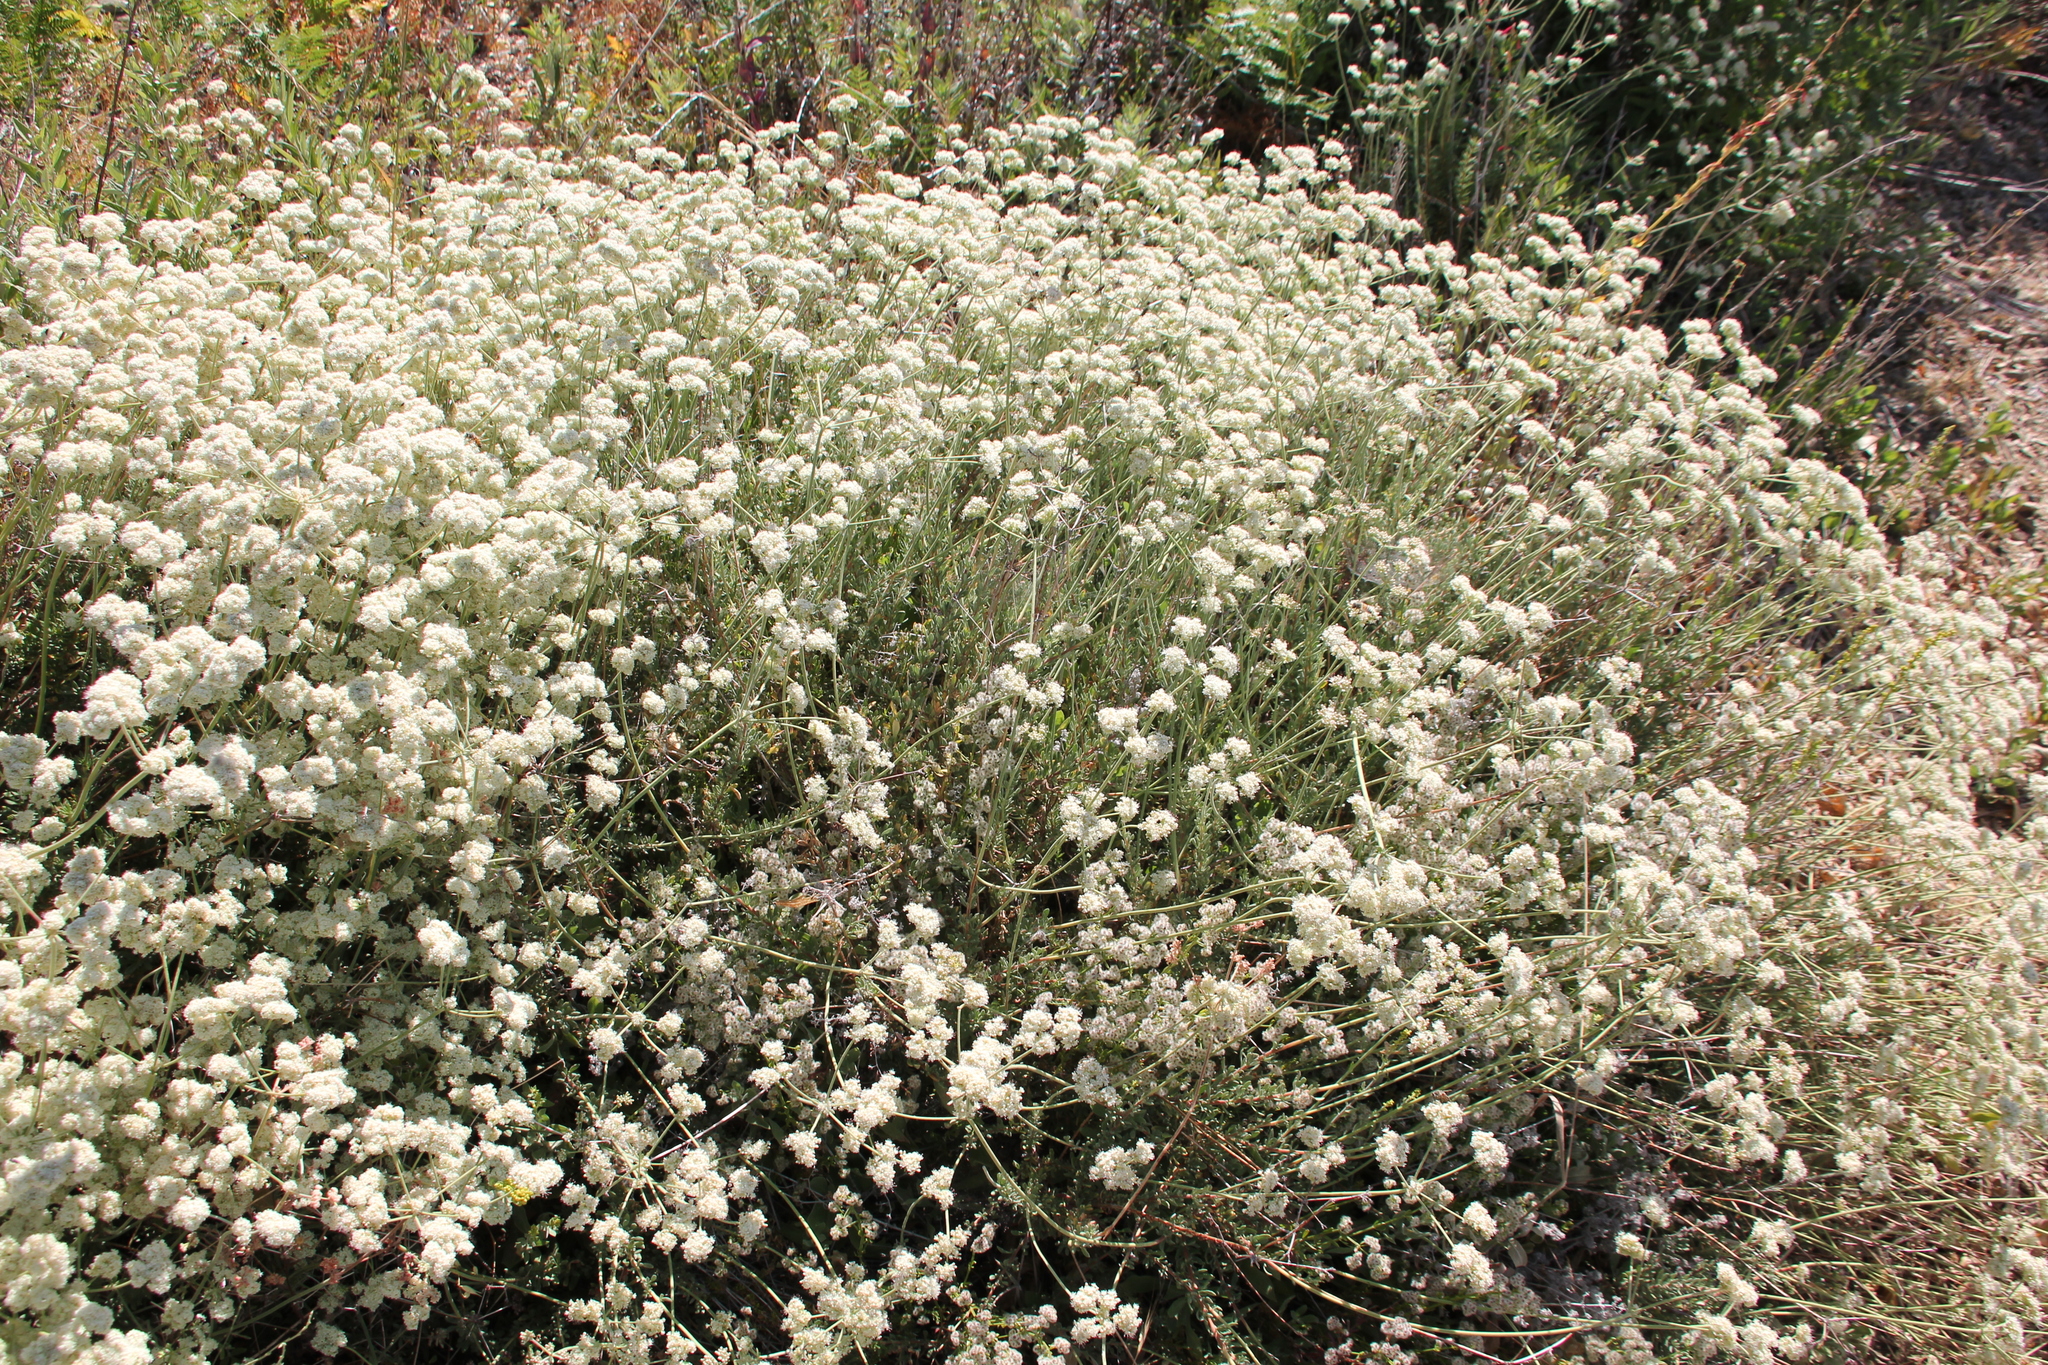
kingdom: Plantae
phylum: Tracheophyta
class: Magnoliopsida
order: Caryophyllales
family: Polygonaceae
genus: Eriogonum
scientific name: Eriogonum fasciculatum
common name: California wild buckwheat
